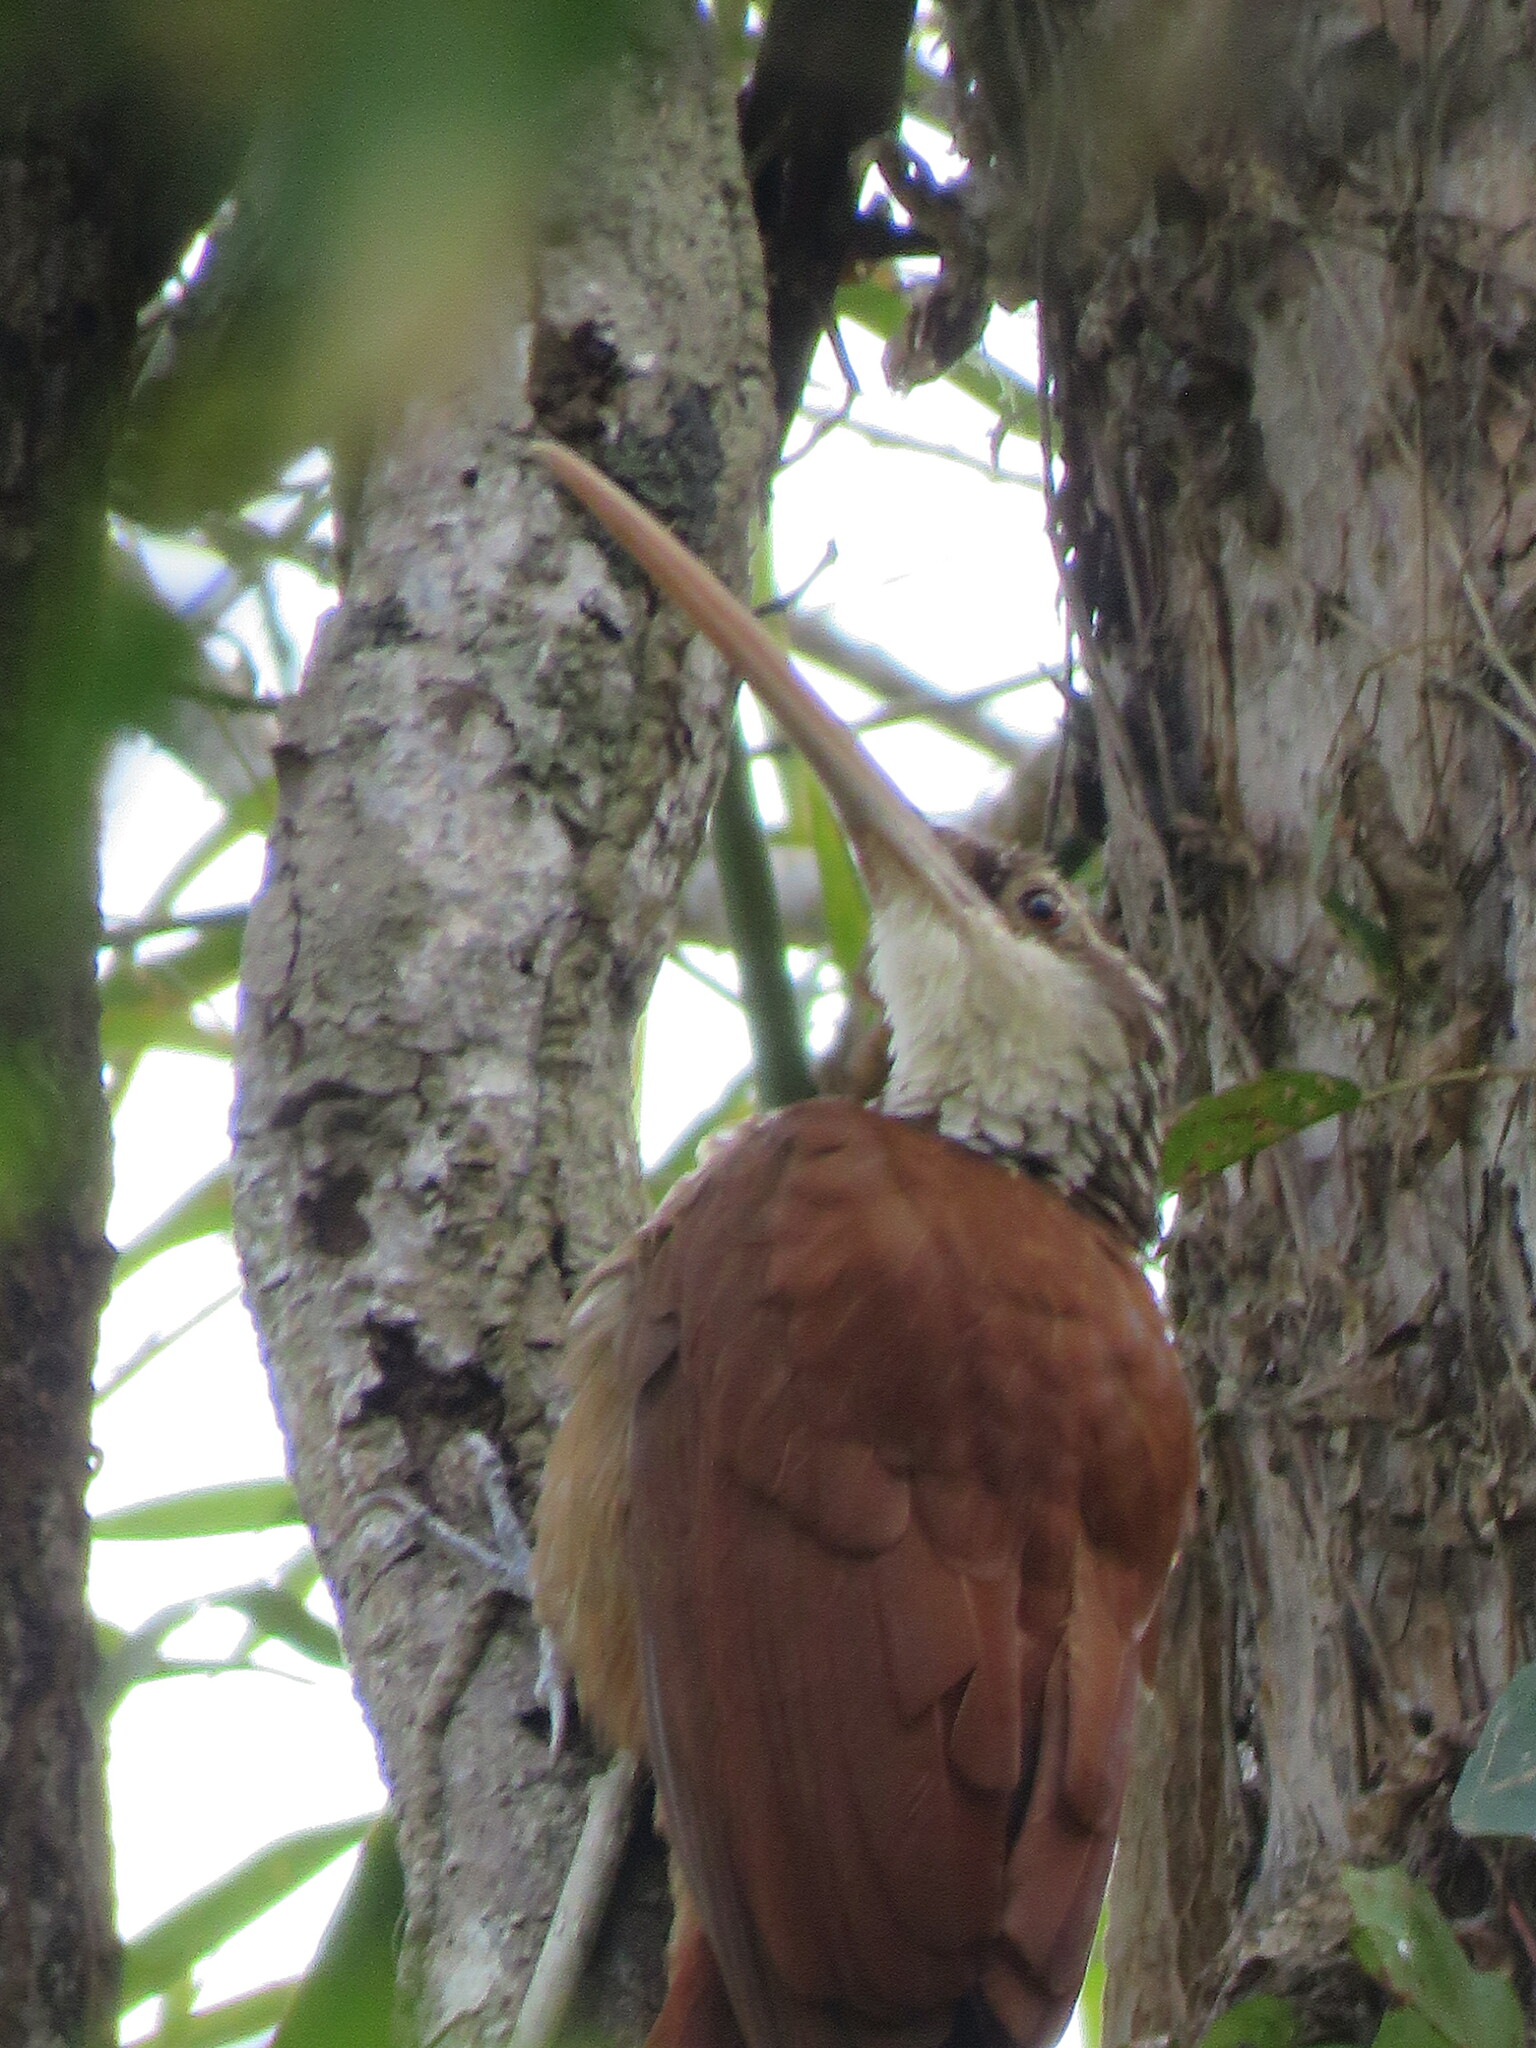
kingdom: Animalia
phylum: Chordata
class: Aves
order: Passeriformes
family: Furnariidae
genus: Nasica
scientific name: Nasica longirostris
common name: Long-billed woodcreeper
